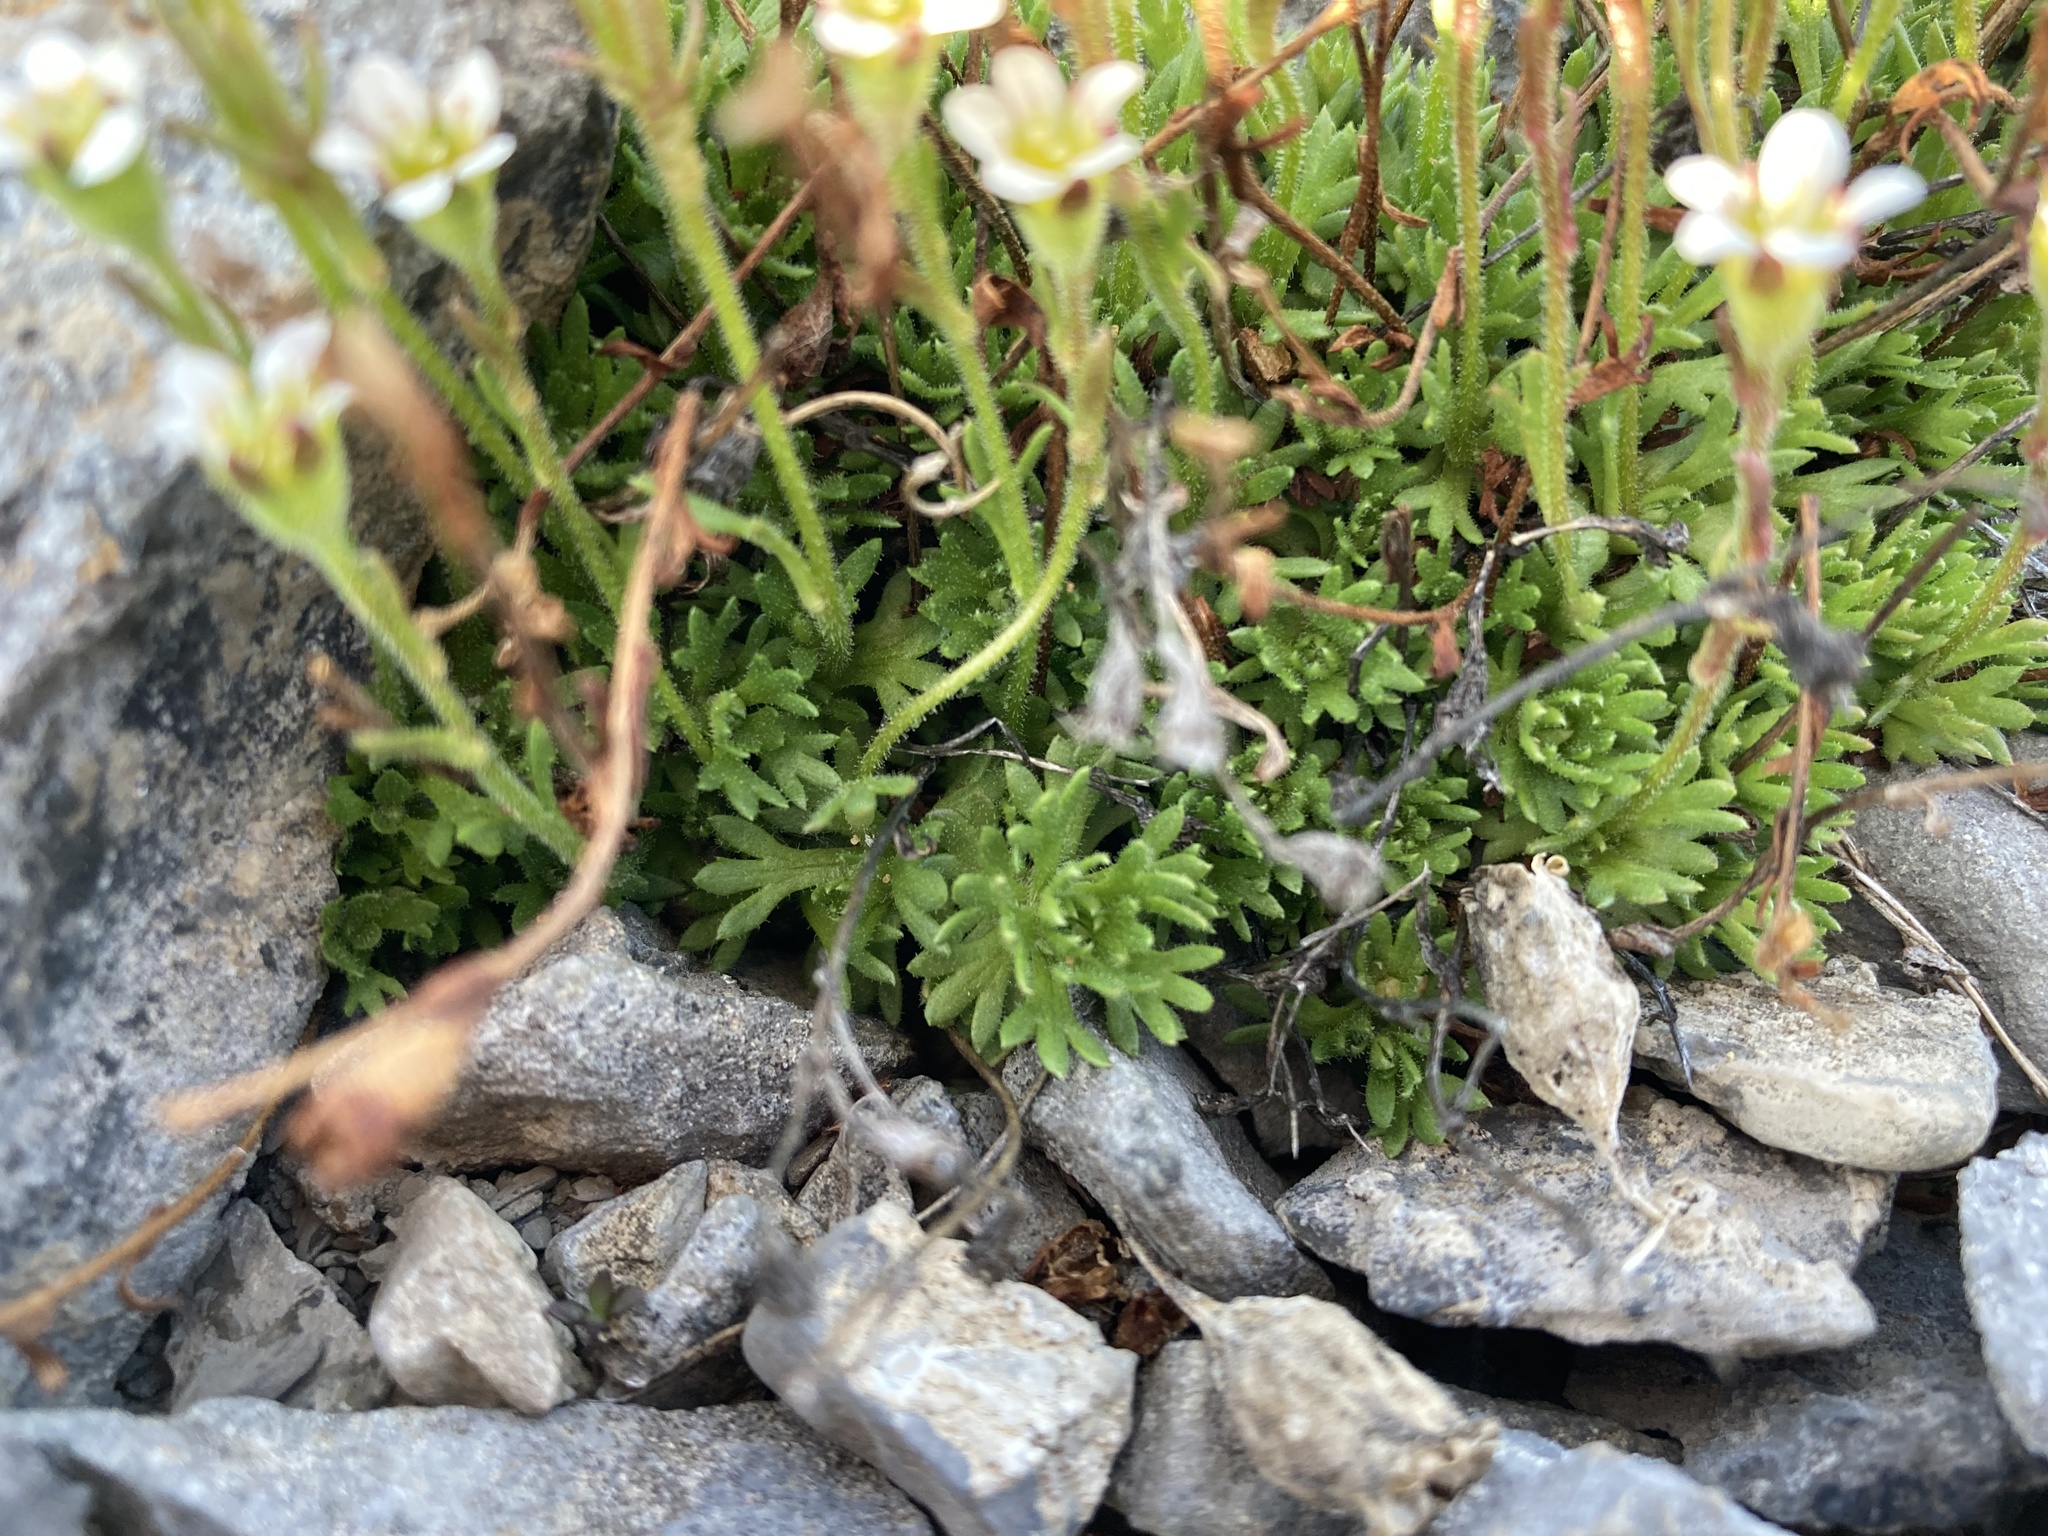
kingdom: Plantae
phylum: Tracheophyta
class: Magnoliopsida
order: Saxifragales
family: Saxifragaceae
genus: Saxifraga
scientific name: Saxifraga cespitosa
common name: Tufted saxifrage
